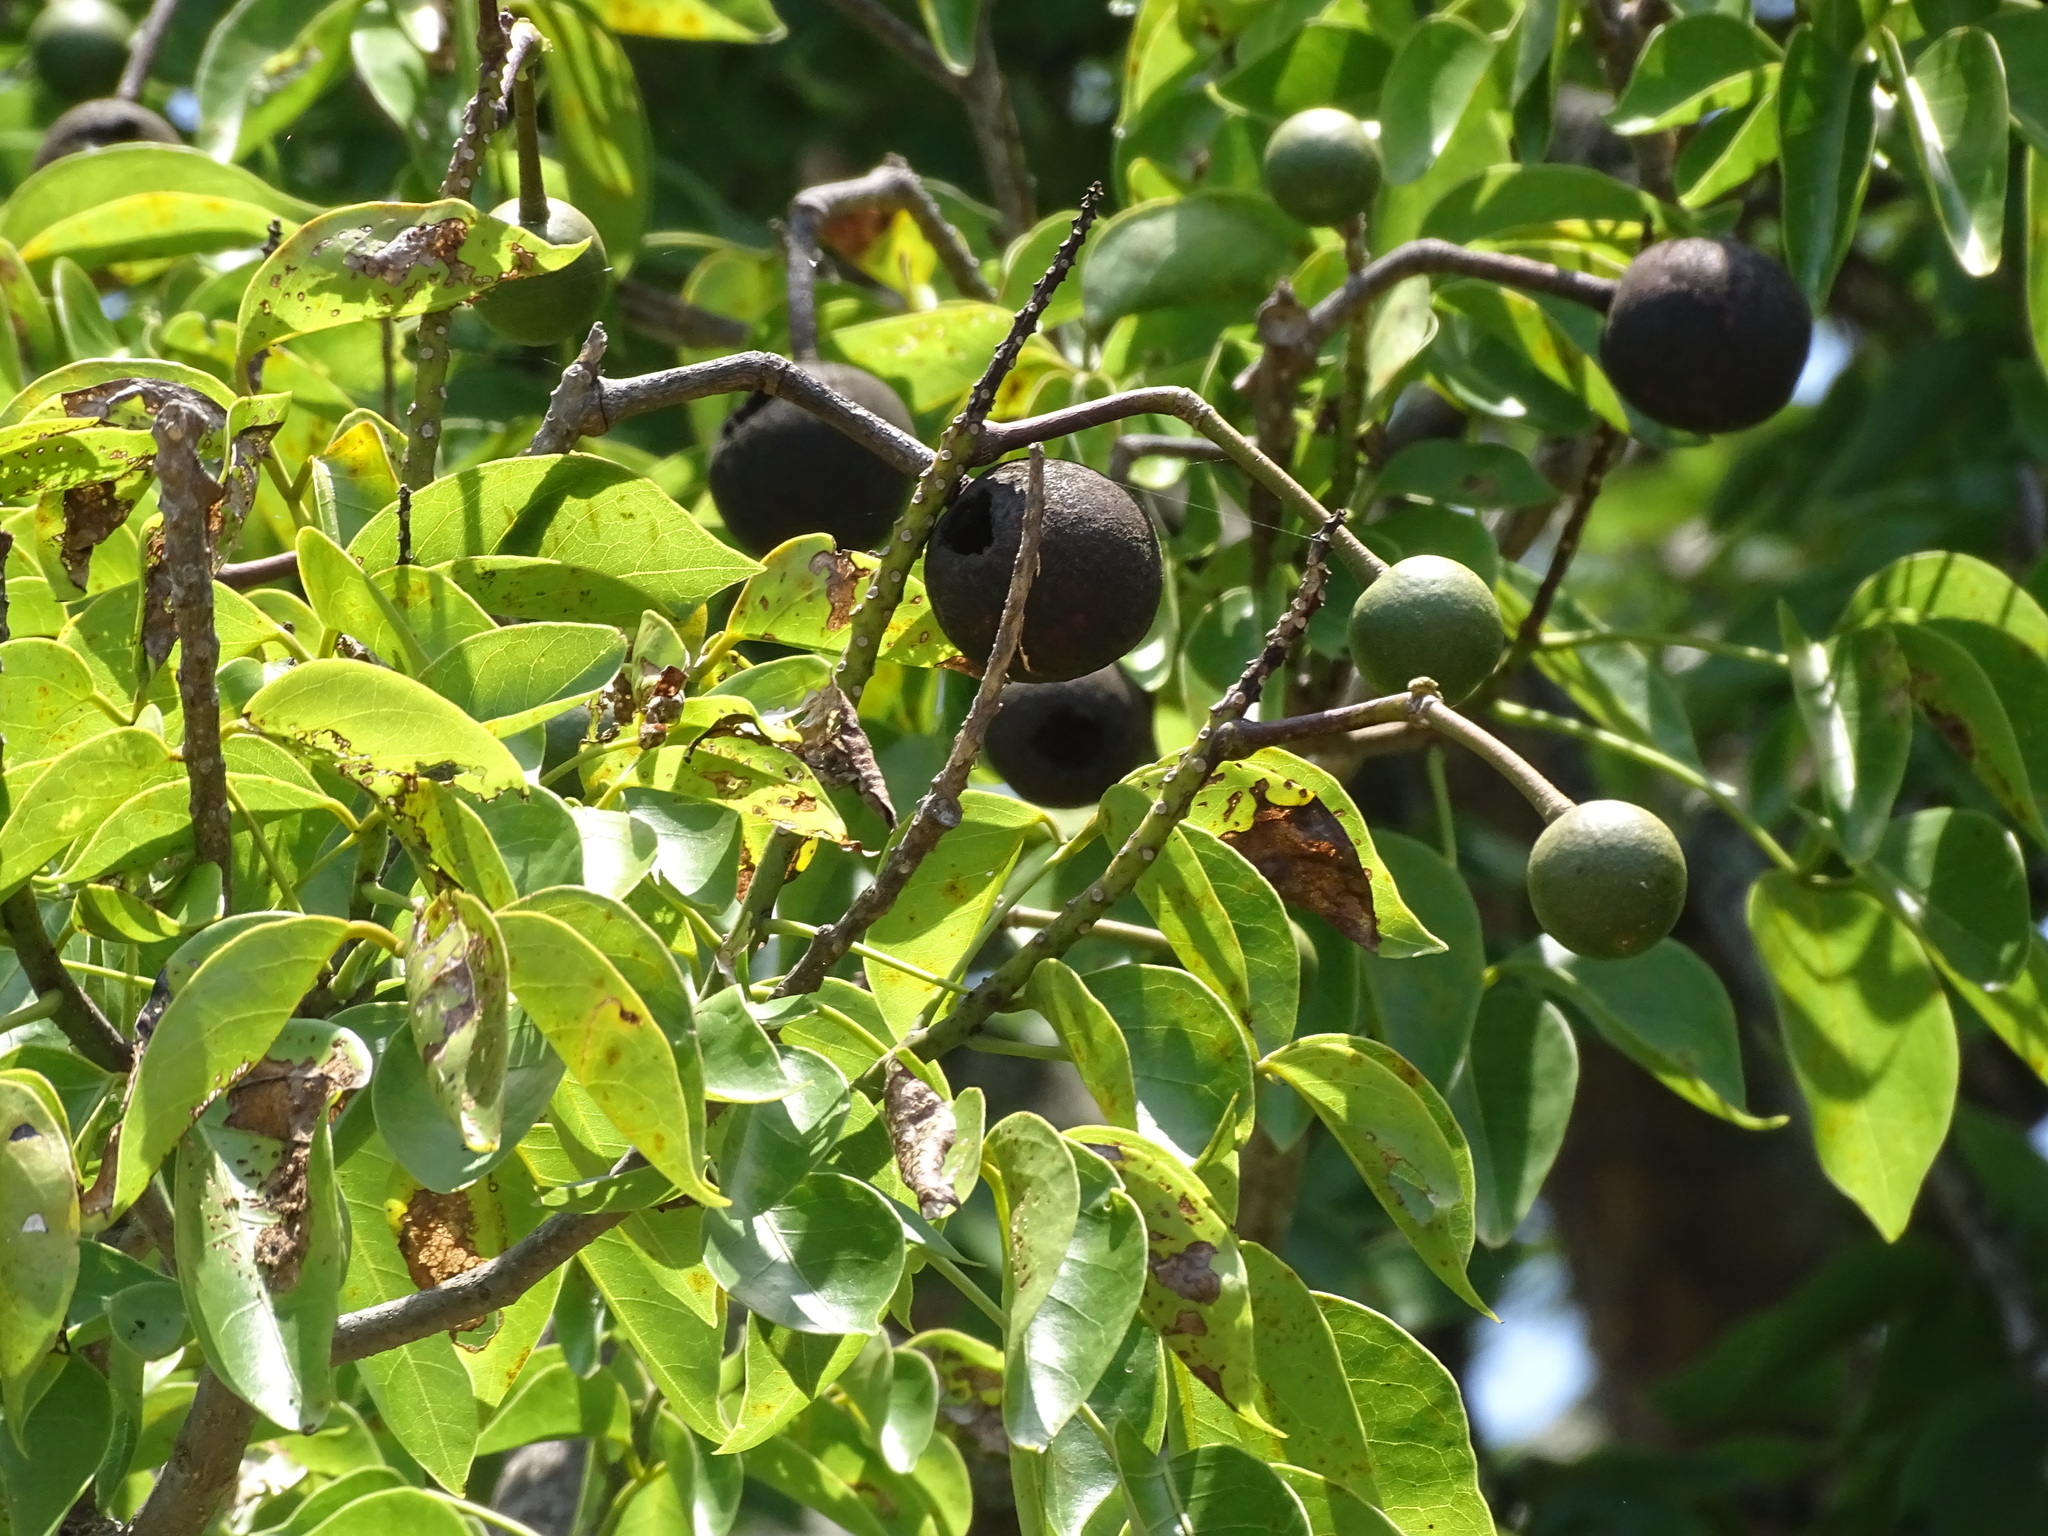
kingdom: Plantae
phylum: Tracheophyta
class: Magnoliopsida
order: Brassicales
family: Capparaceae
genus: Crateva
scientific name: Crateva tapia
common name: Garlic-pear
